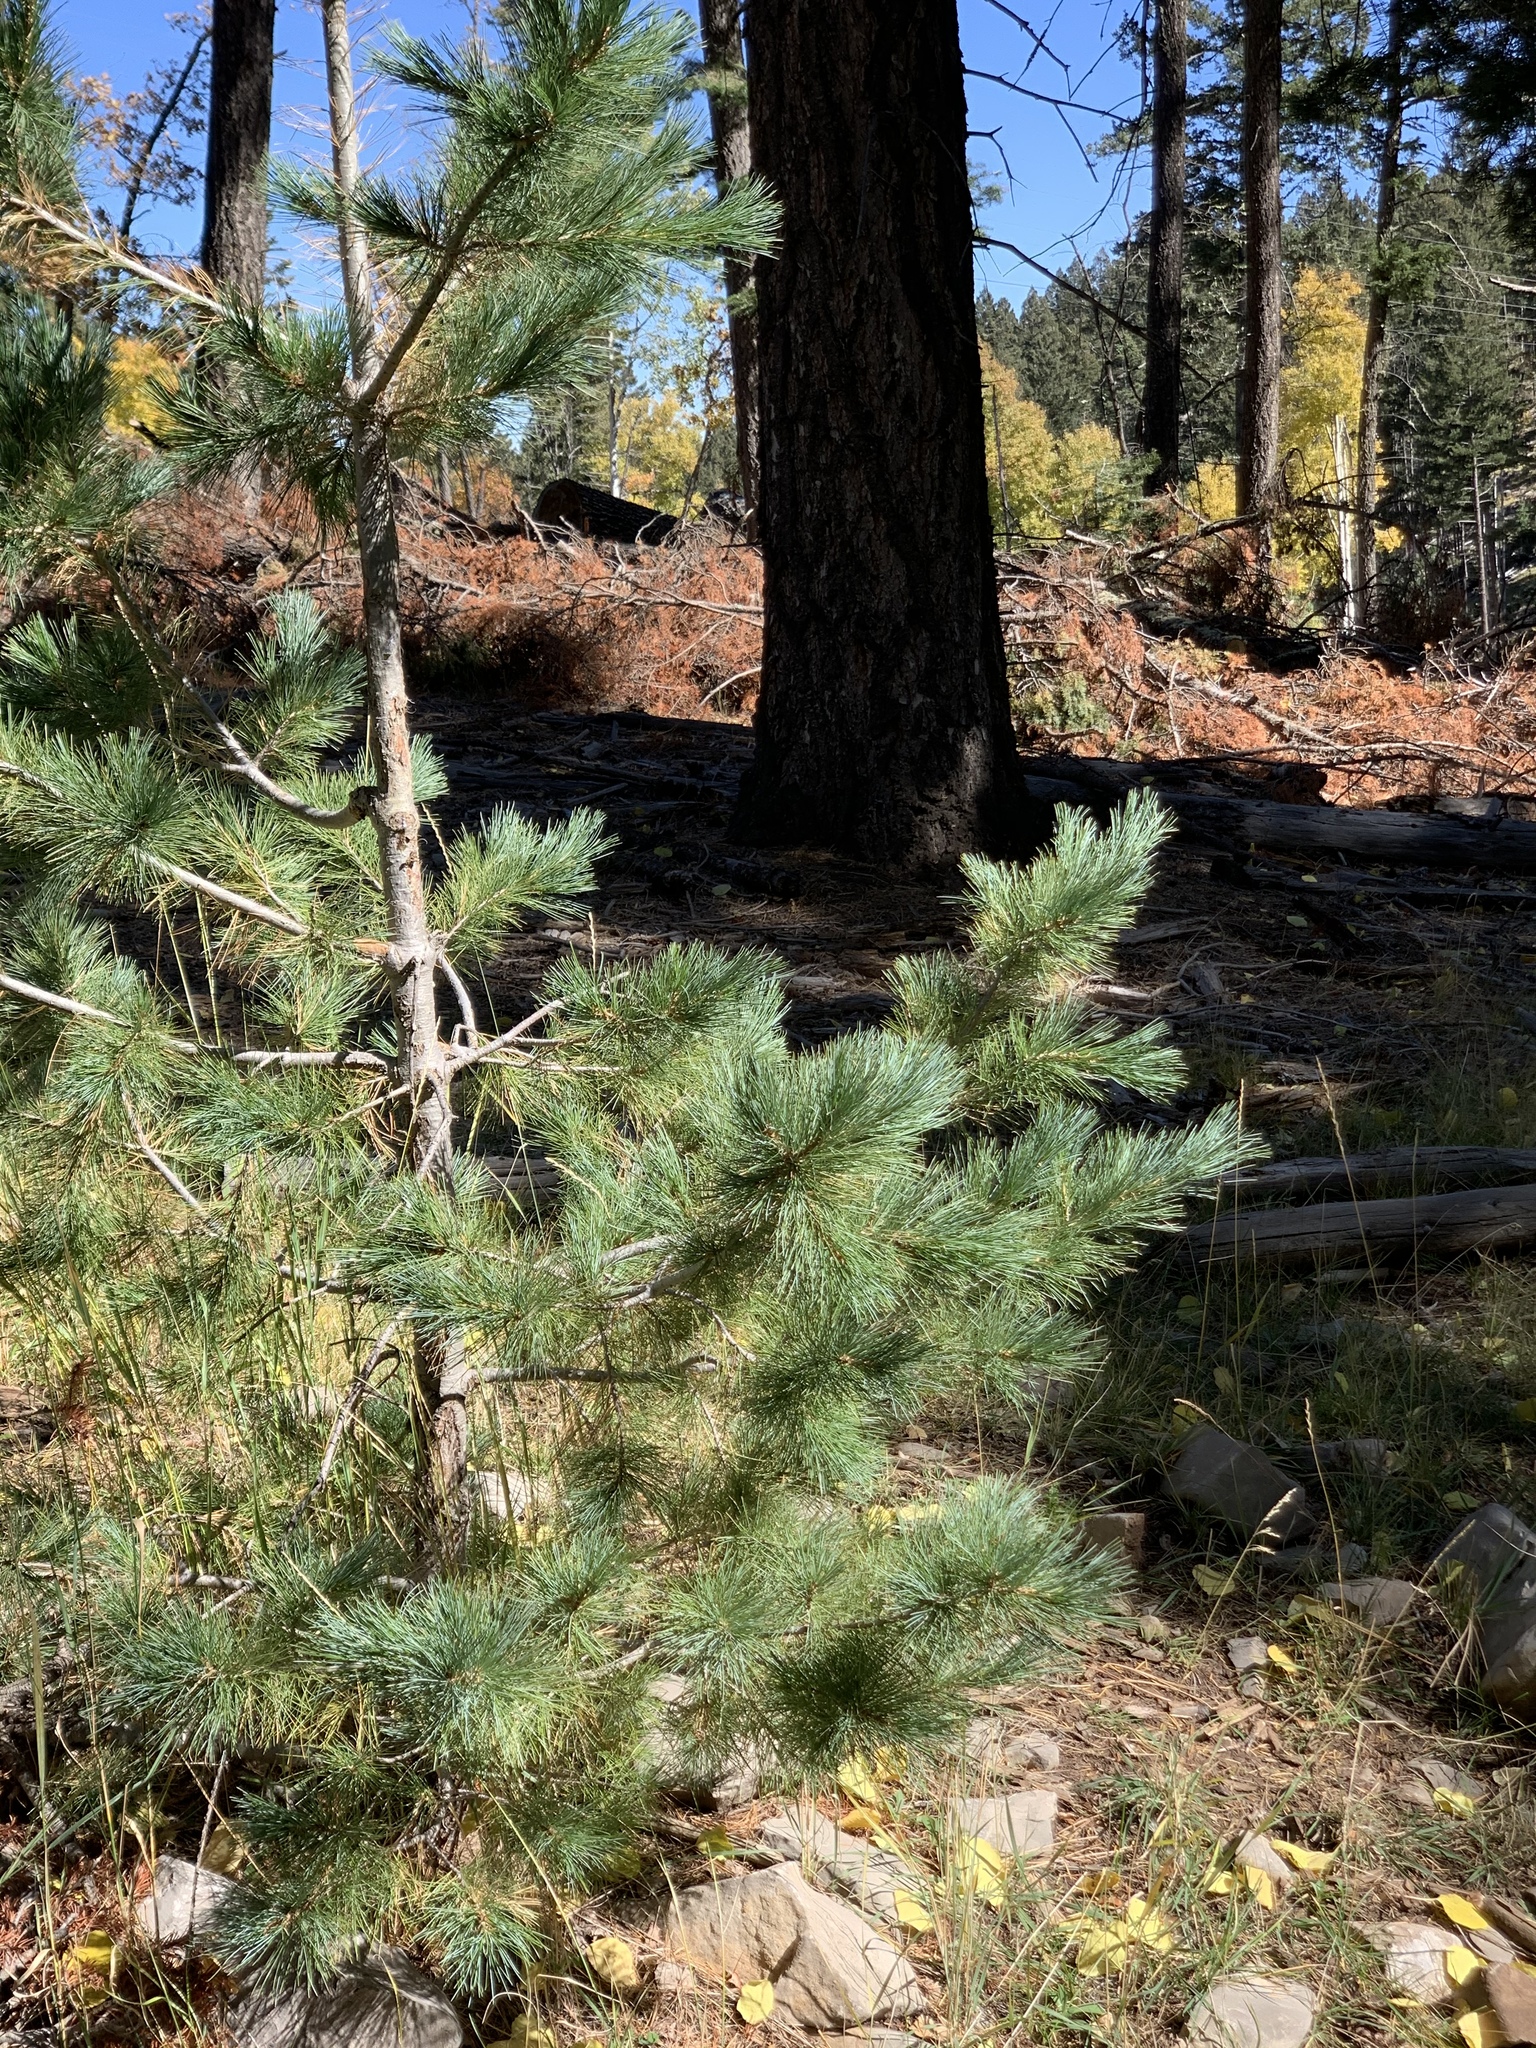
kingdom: Plantae
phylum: Tracheophyta
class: Pinopsida
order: Pinales
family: Pinaceae
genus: Pinus
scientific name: Pinus strobiformis
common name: Southwestern white pine
